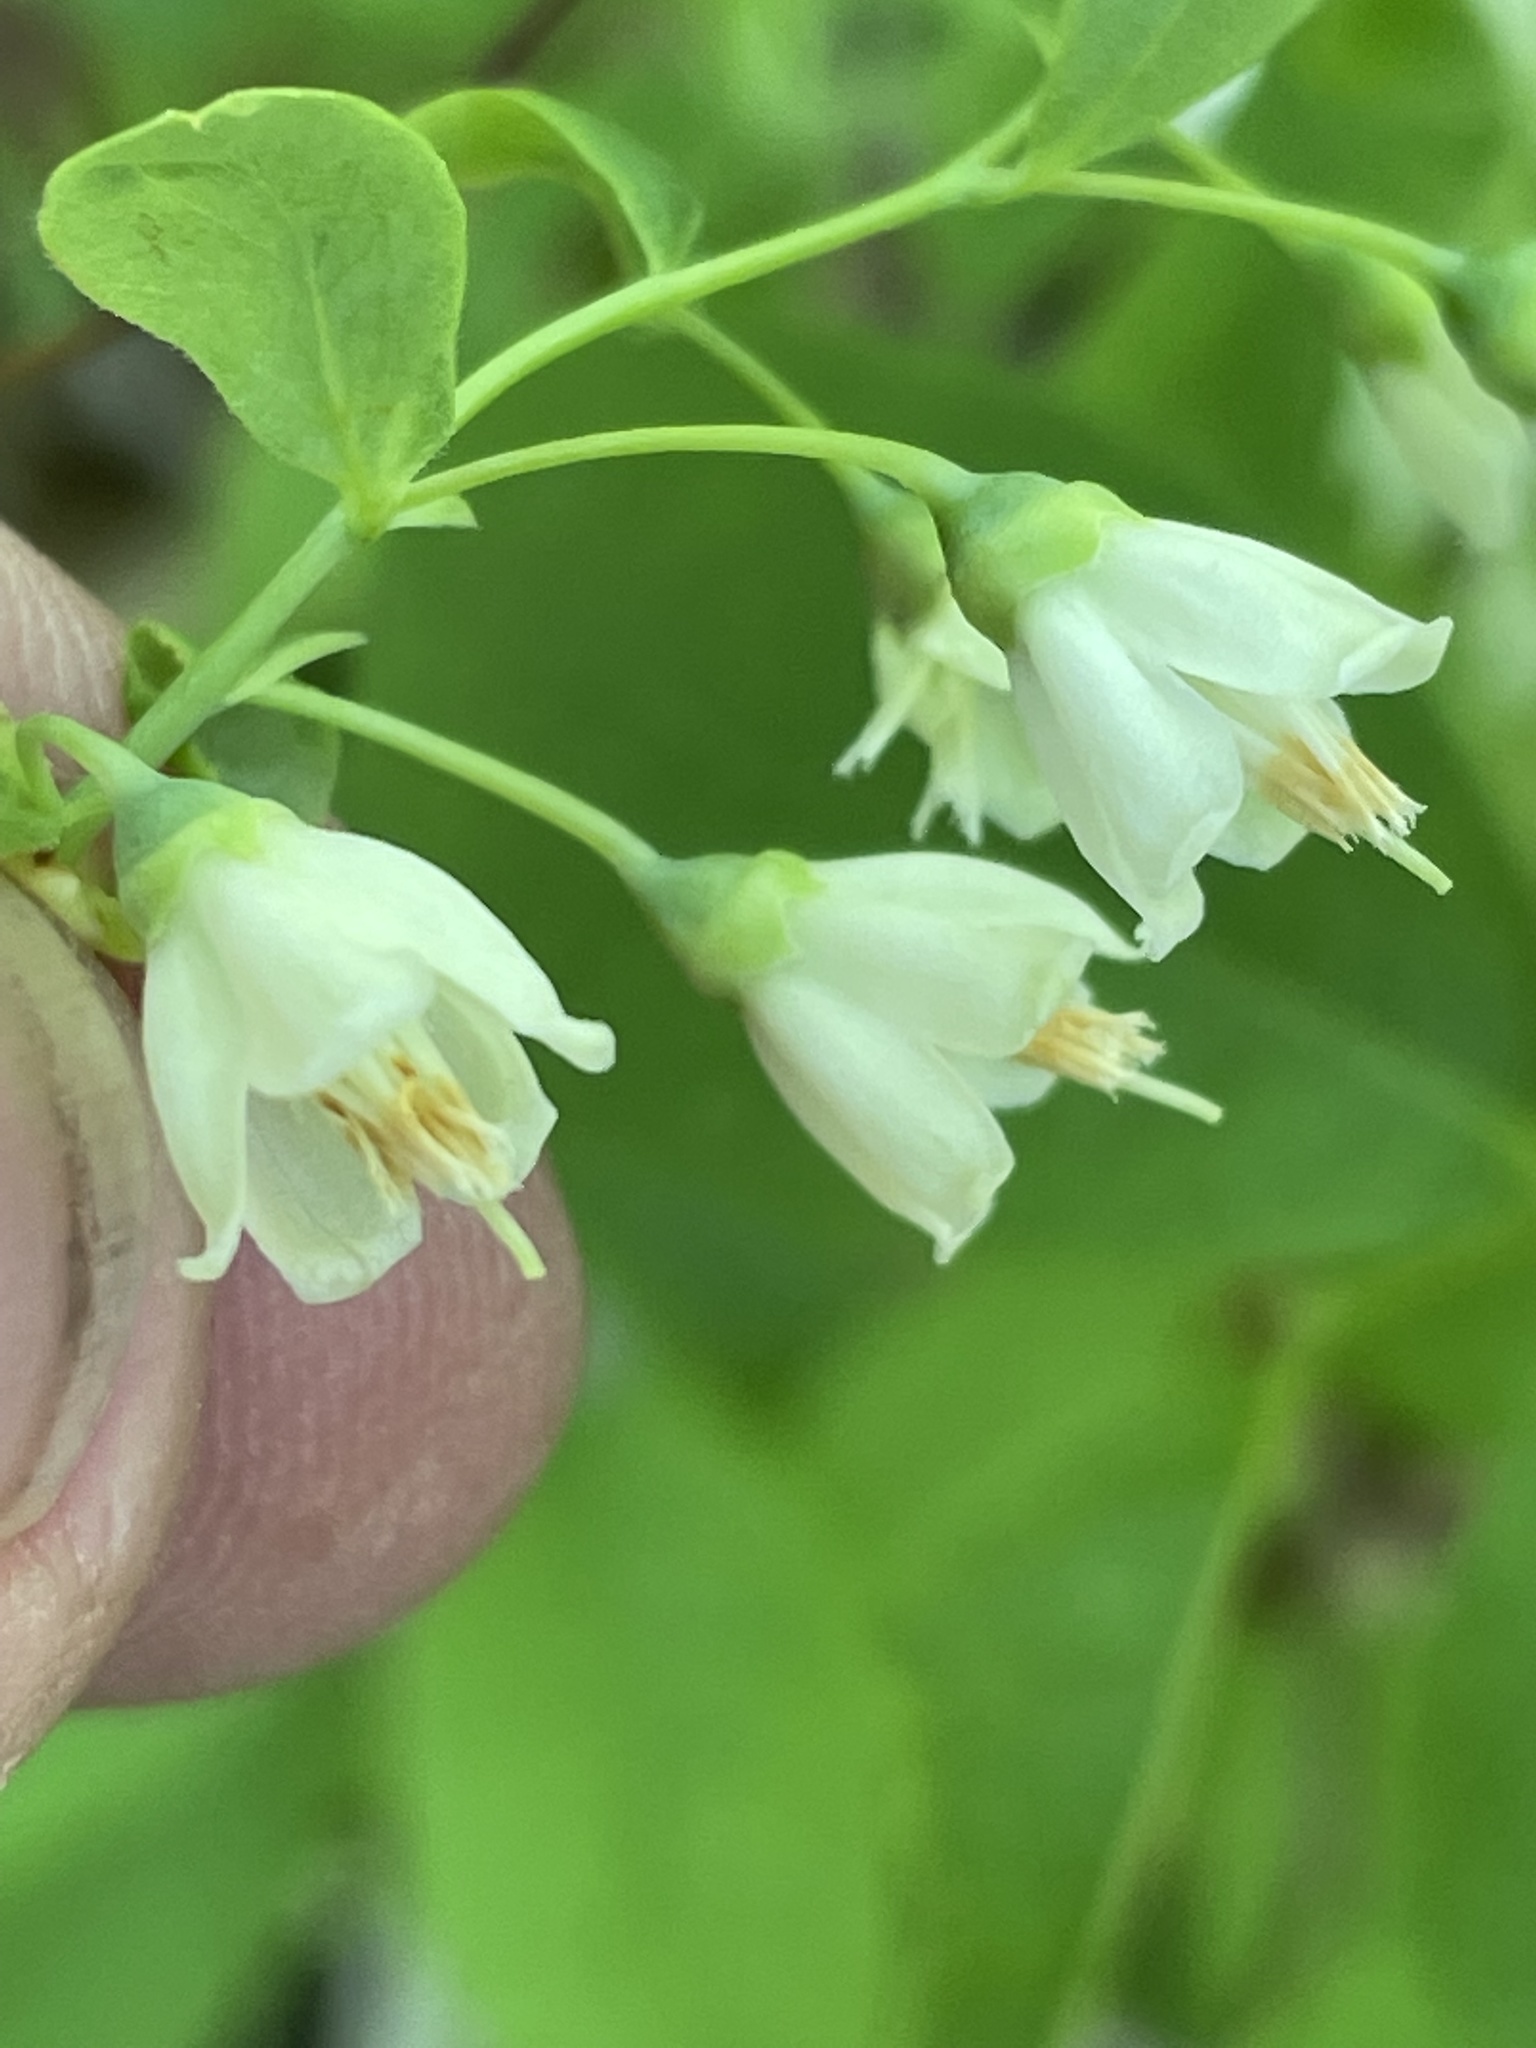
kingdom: Plantae
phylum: Tracheophyta
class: Magnoliopsida
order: Ericales
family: Ericaceae
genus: Vaccinium
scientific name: Vaccinium stamineum
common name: Deerberry
